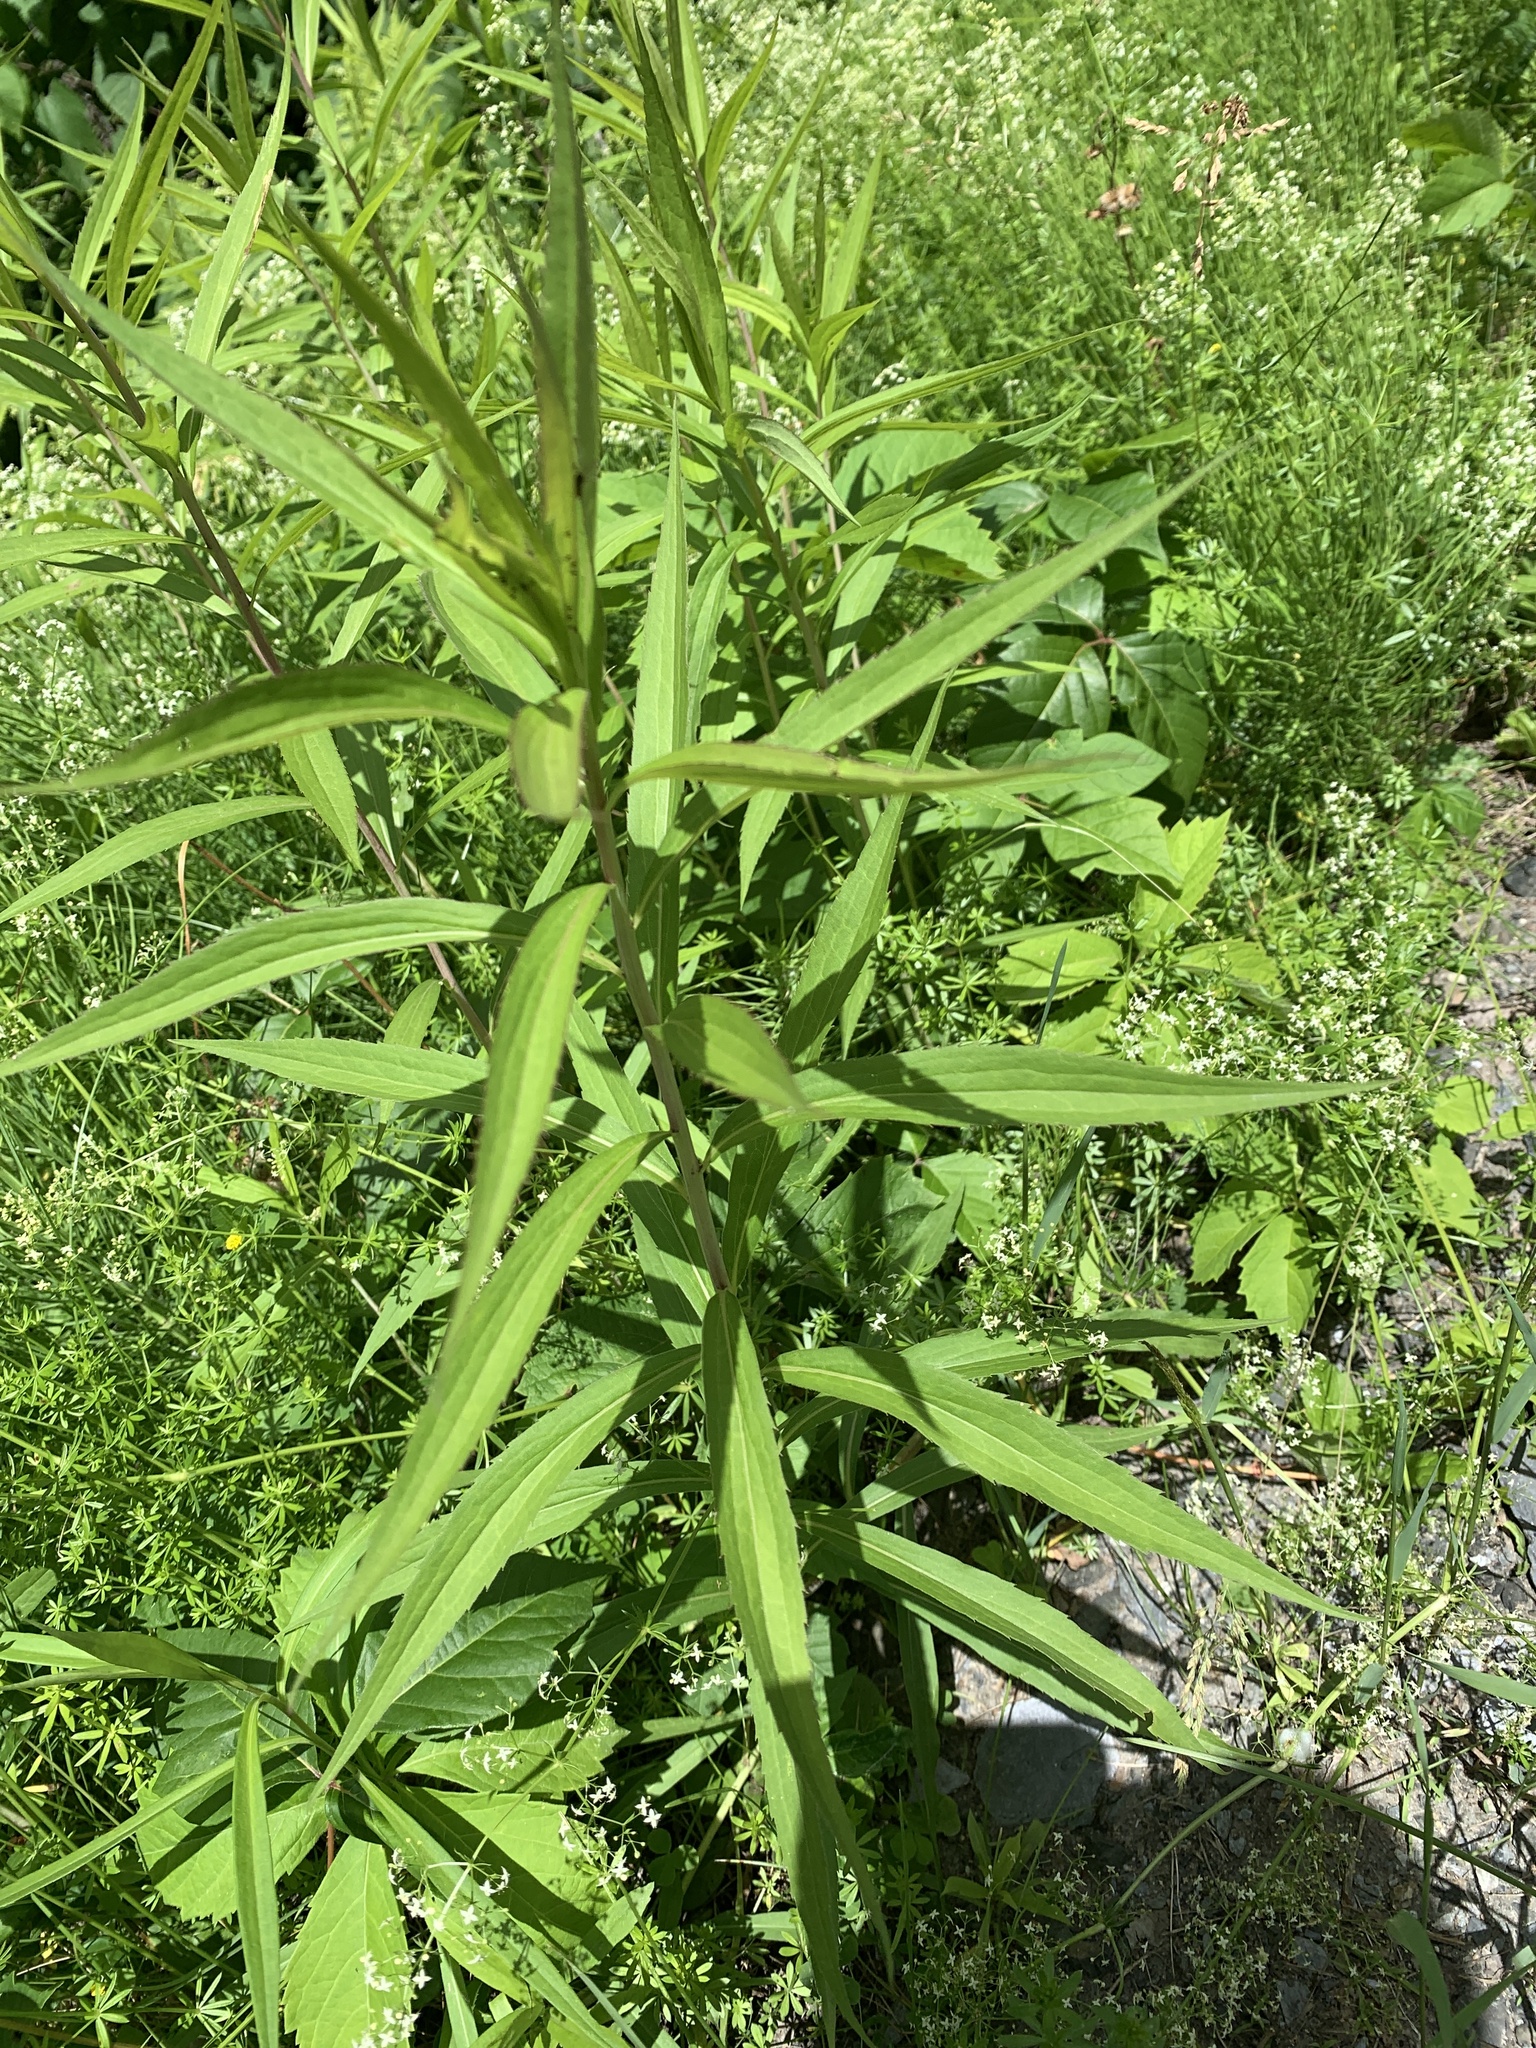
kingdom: Plantae
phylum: Tracheophyta
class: Magnoliopsida
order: Asterales
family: Asteraceae
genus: Solidago
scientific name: Solidago gigantea
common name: Giant goldenrod
